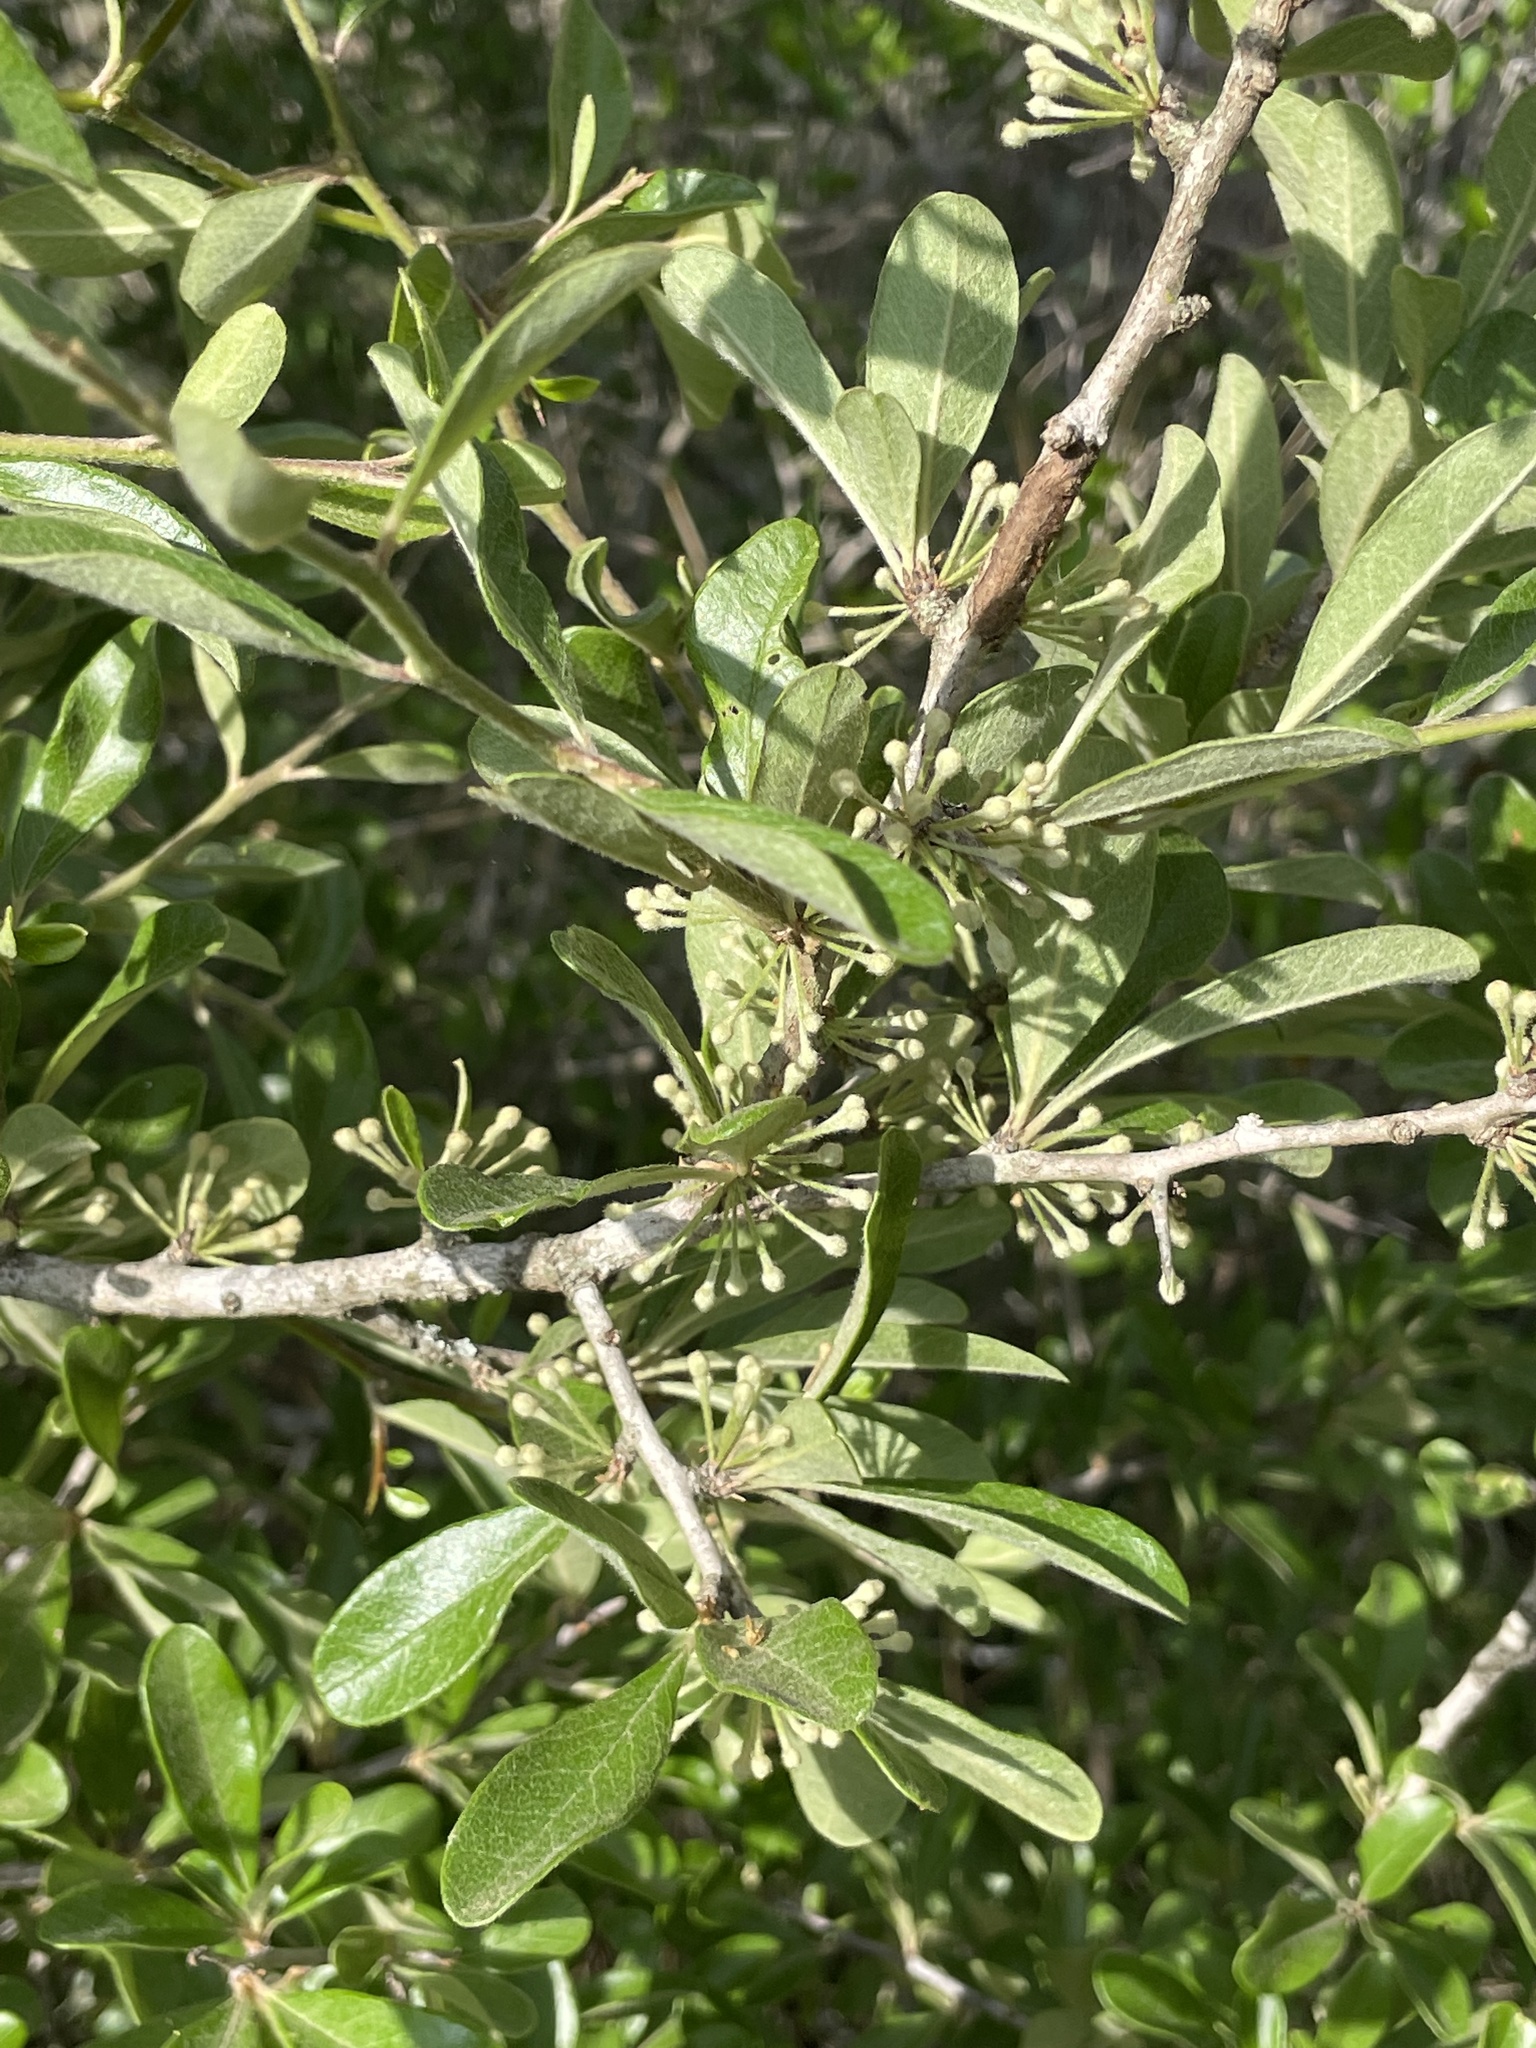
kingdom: Plantae
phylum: Tracheophyta
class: Magnoliopsida
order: Ericales
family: Sapotaceae
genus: Sideroxylon
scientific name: Sideroxylon lanuginosum
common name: Chittamwood
